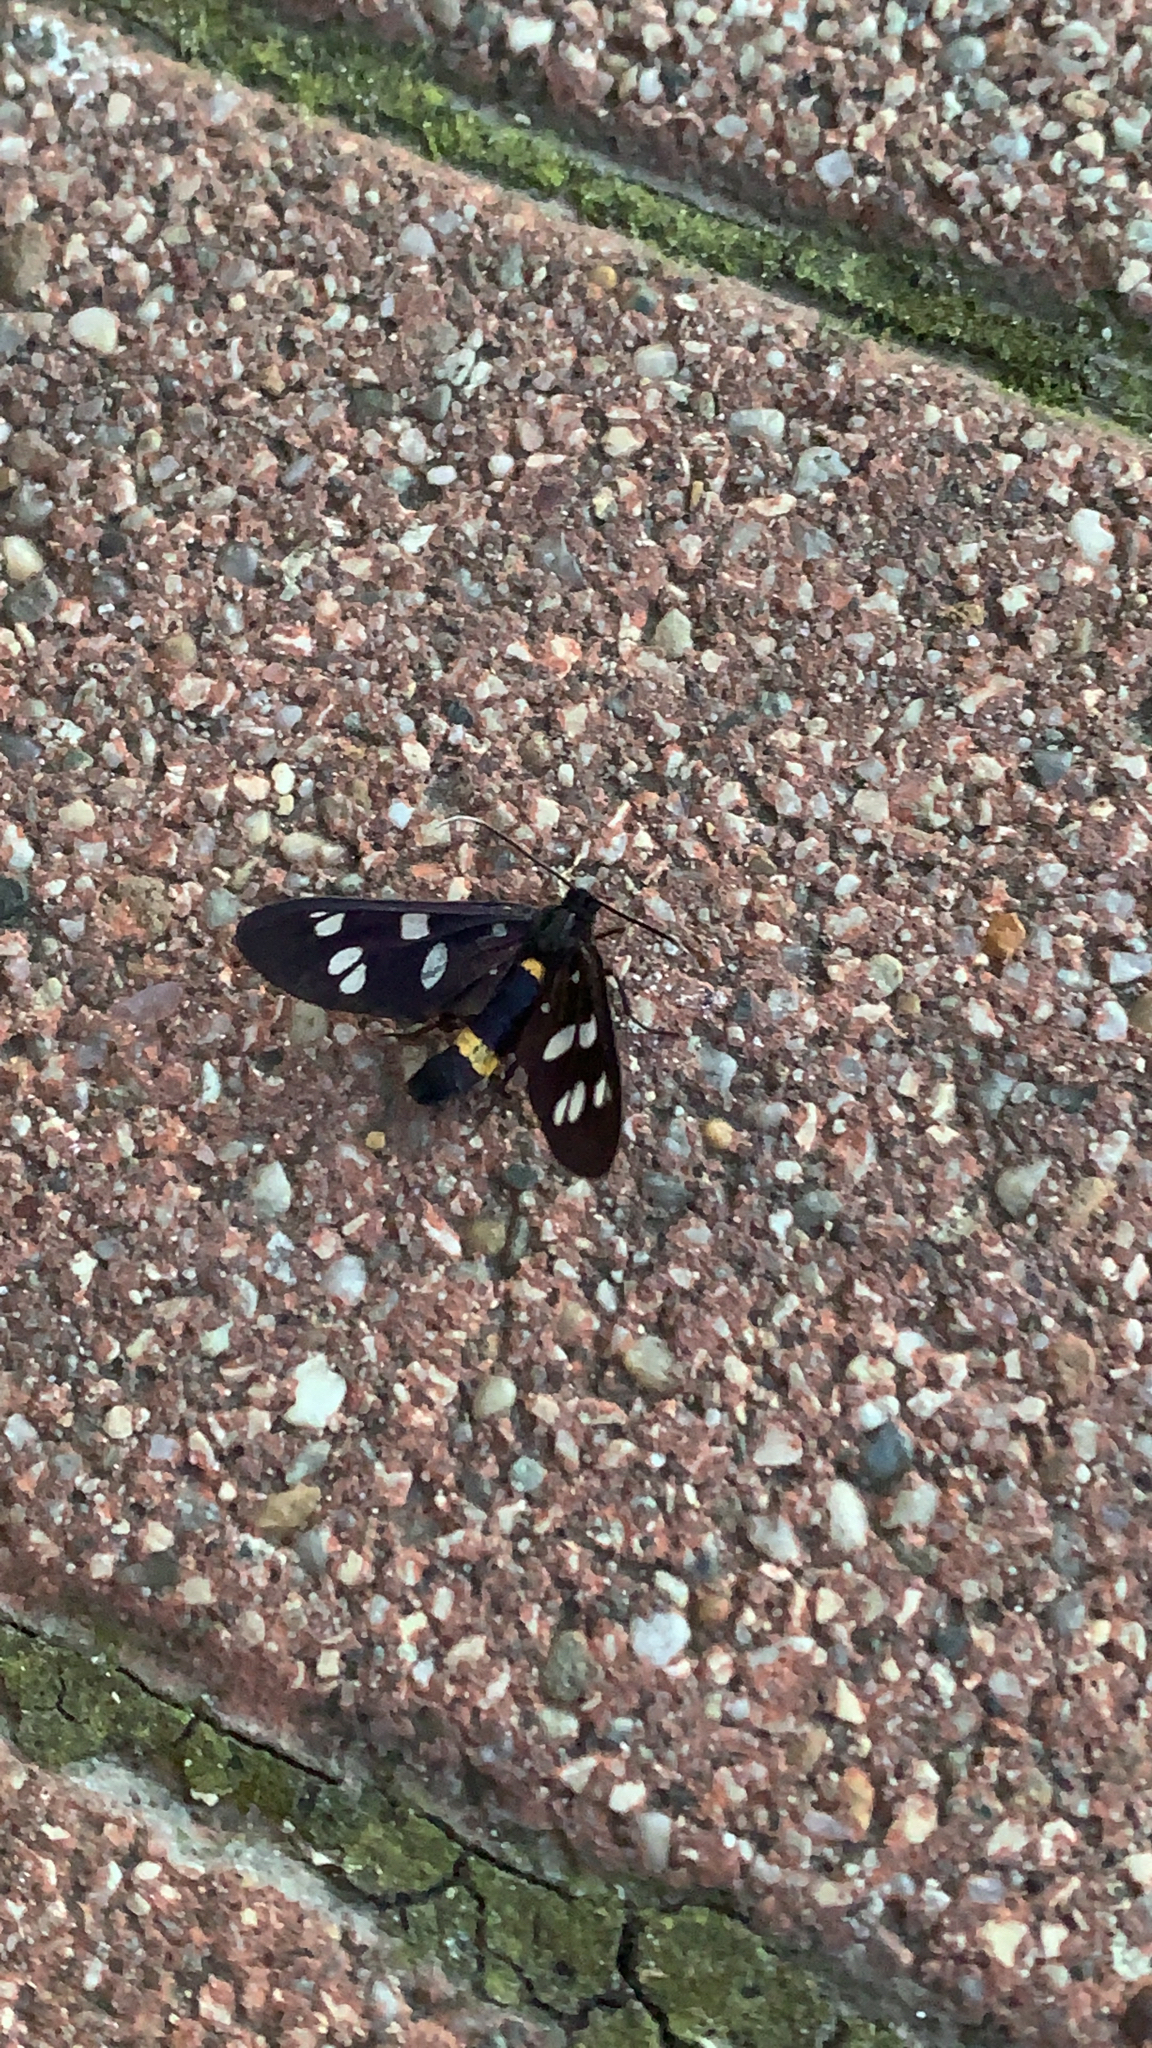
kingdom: Animalia
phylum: Arthropoda
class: Insecta
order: Lepidoptera
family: Erebidae
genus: Amata
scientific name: Amata phegea
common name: Nine-spotted
